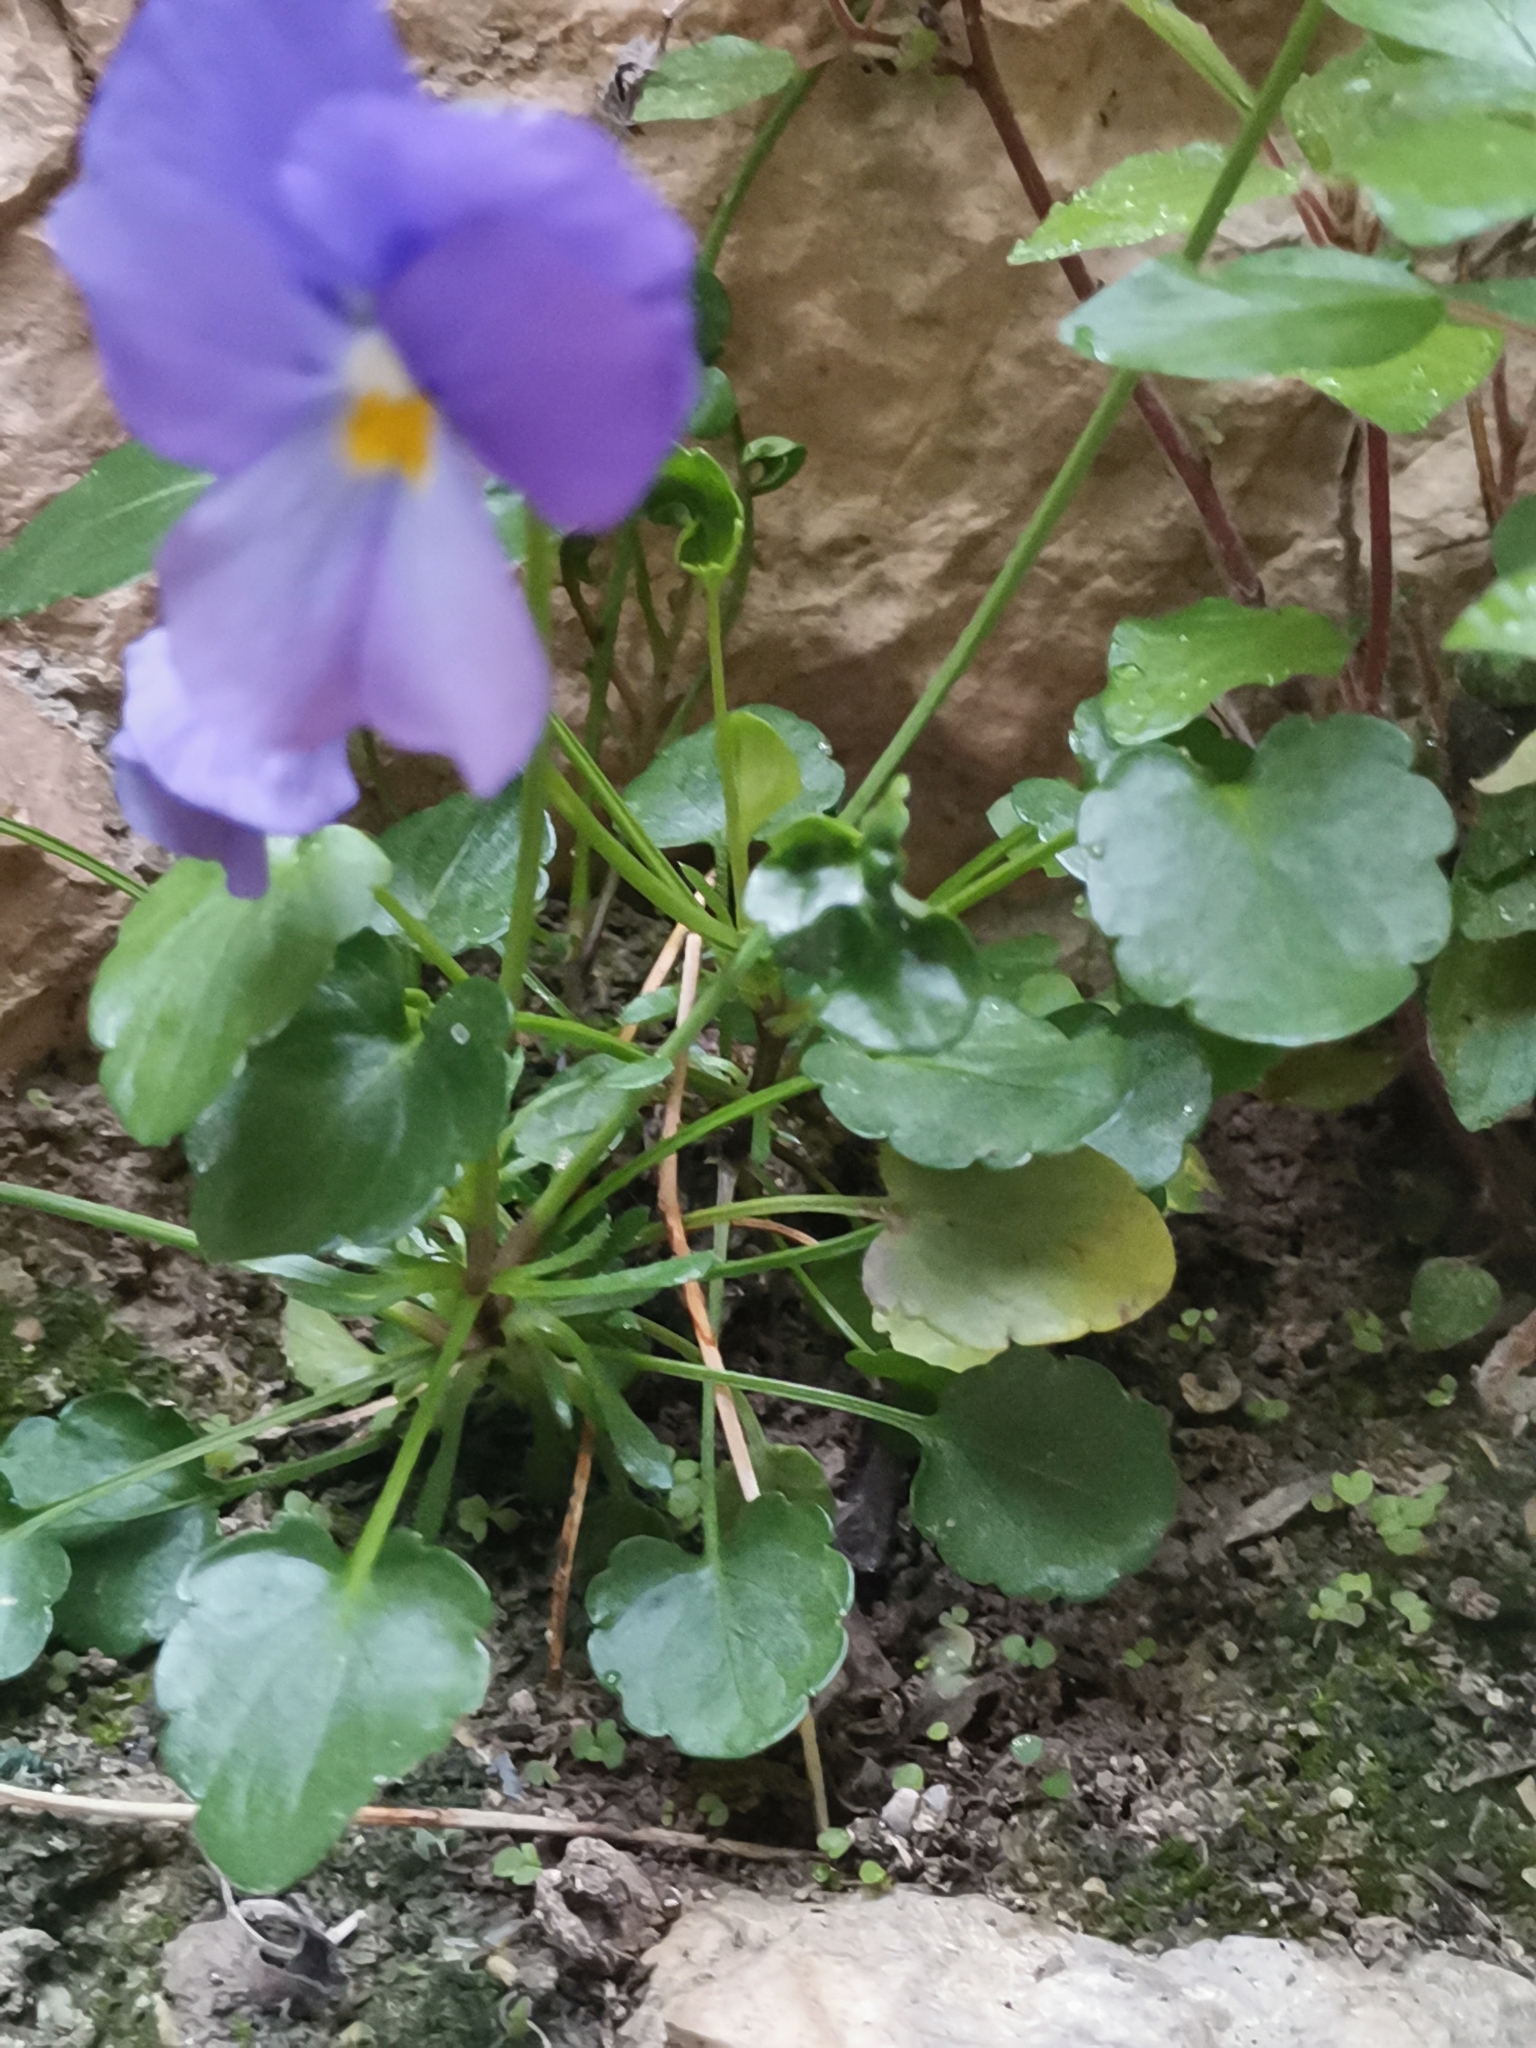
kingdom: Plantae
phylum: Tracheophyta
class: Magnoliopsida
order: Malpighiales
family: Violaceae
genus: Viola
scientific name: Viola eugeniae
